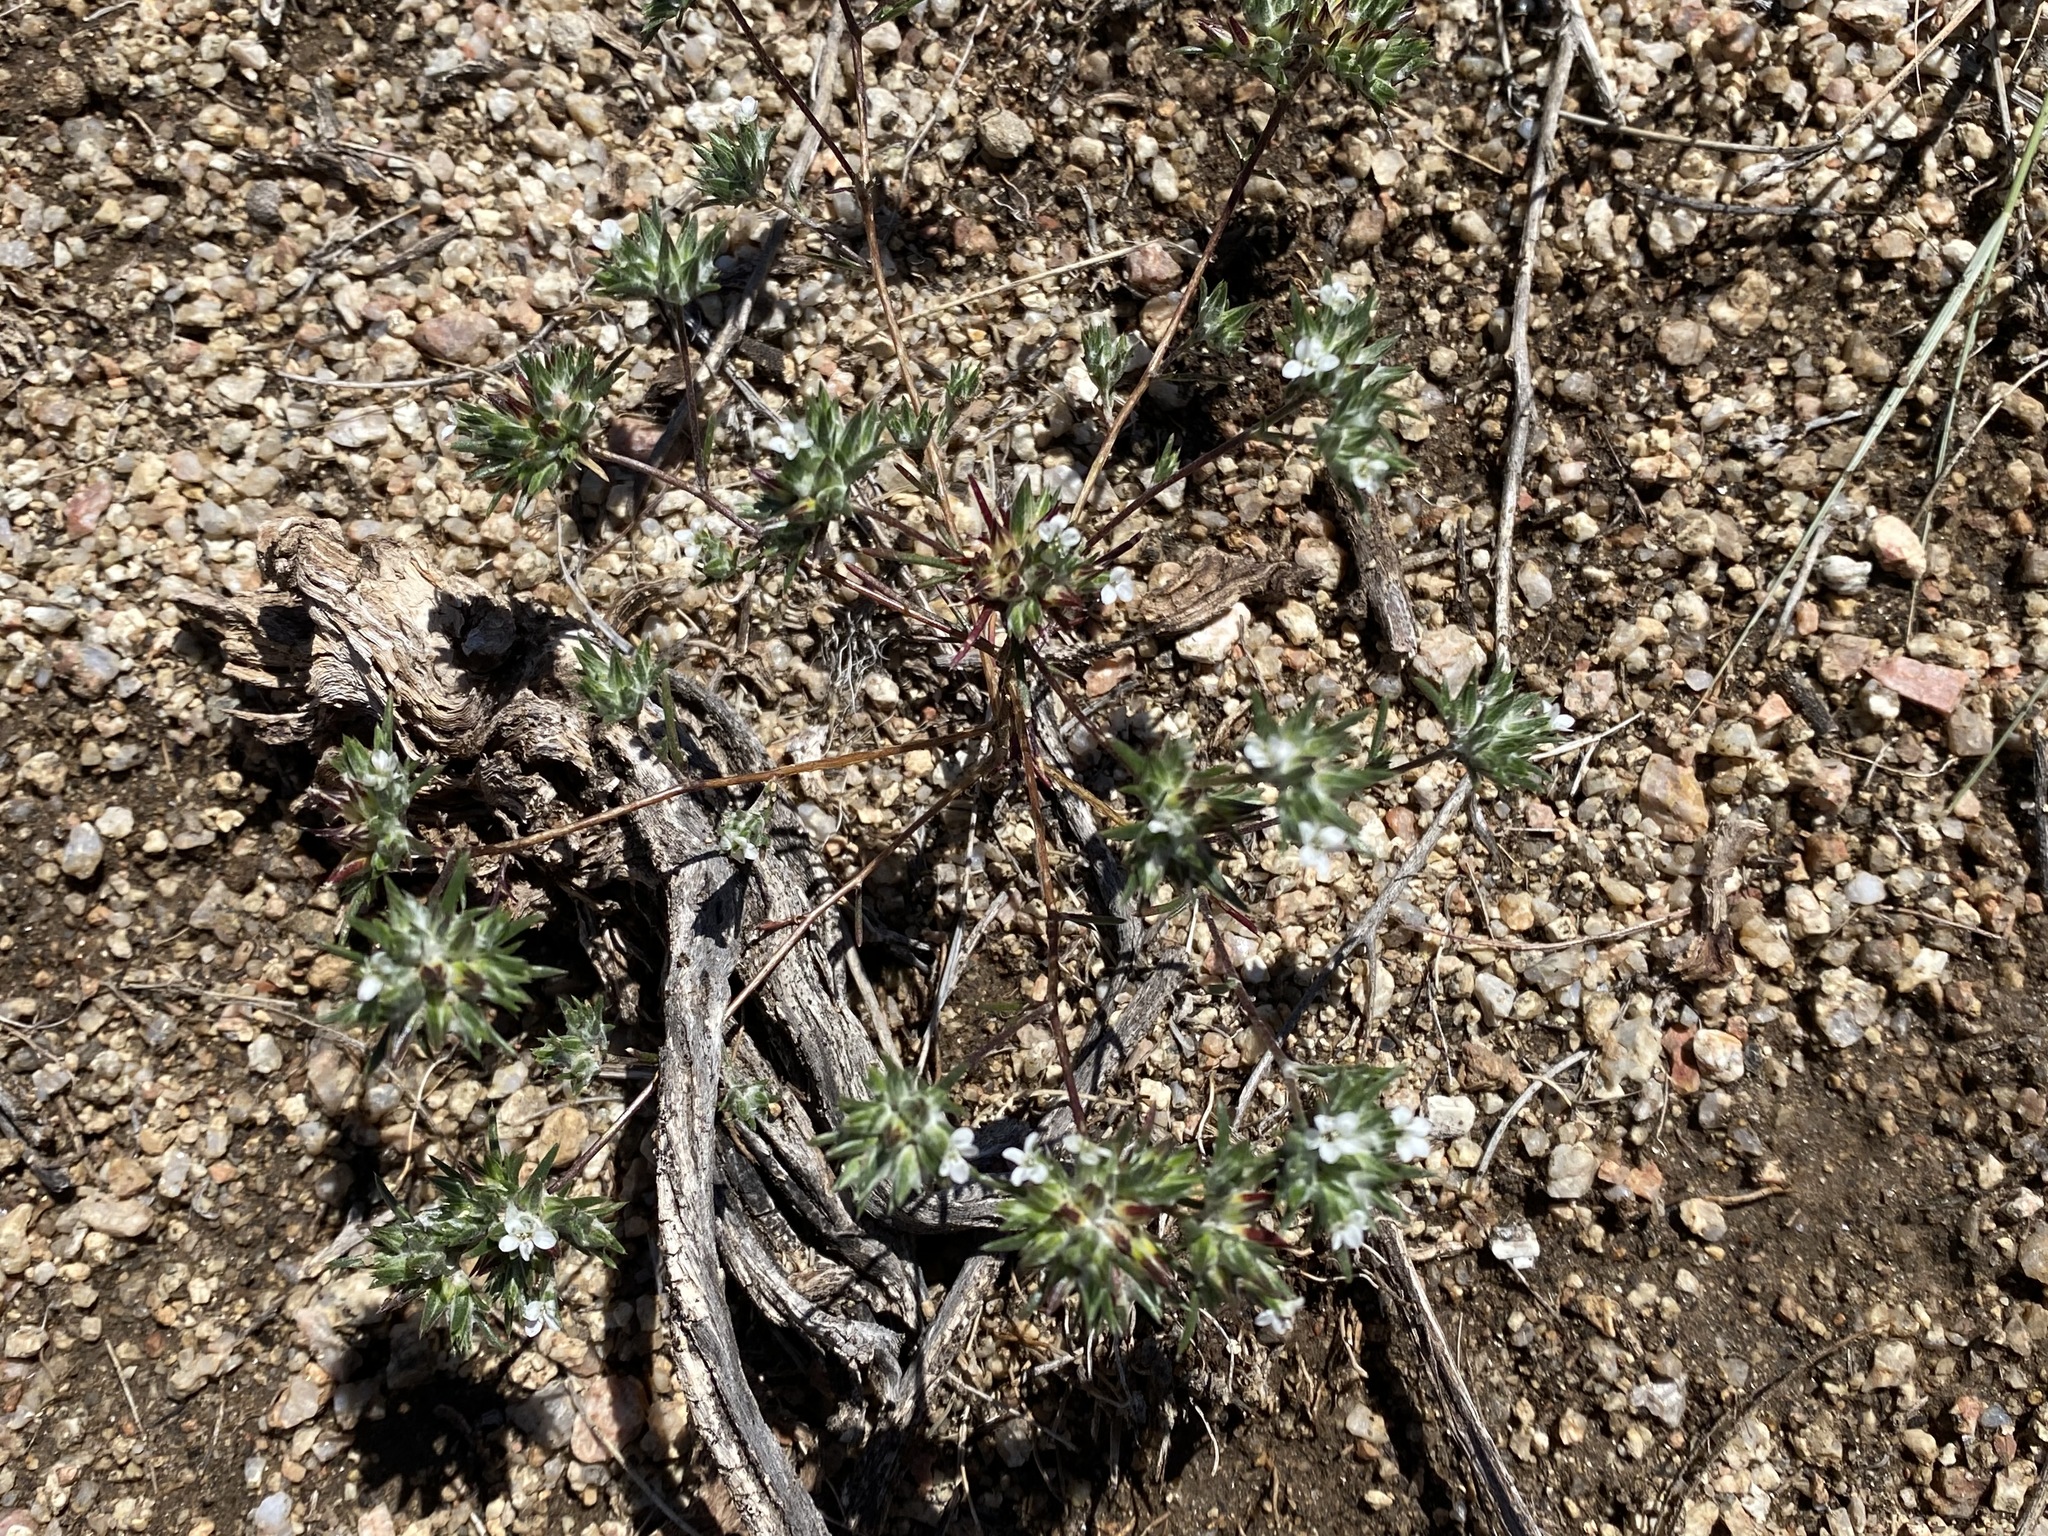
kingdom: Plantae
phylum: Tracheophyta
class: Magnoliopsida
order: Ericales
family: Polemoniaceae
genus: Eriastrum
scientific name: Eriastrum diffusum
